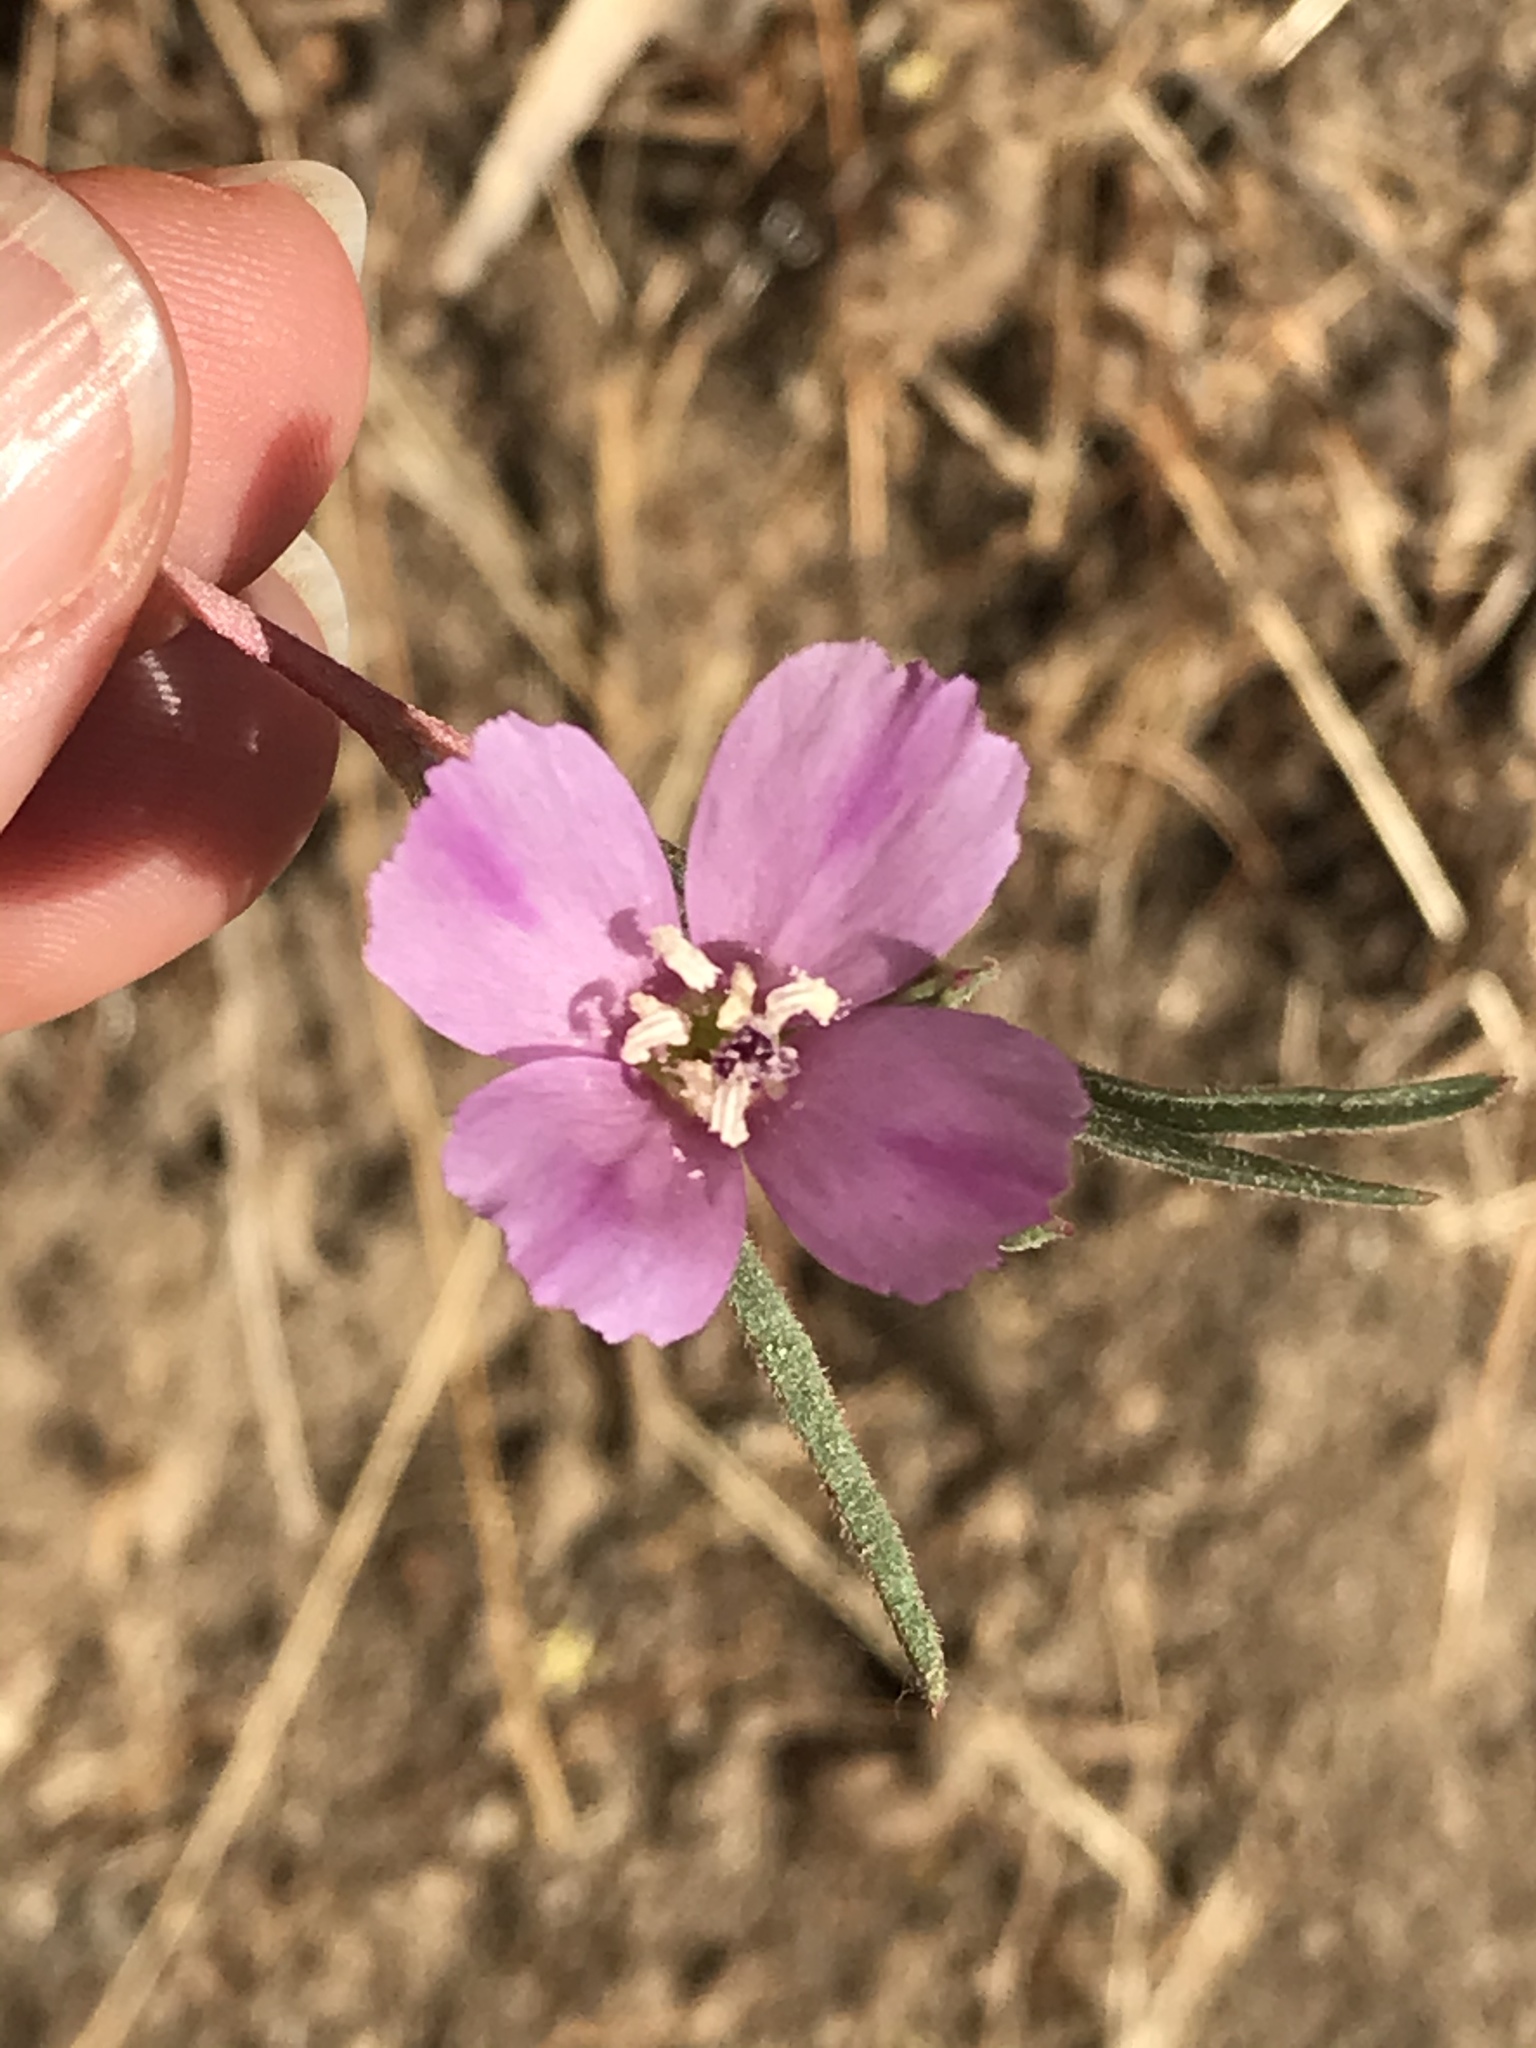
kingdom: Plantae
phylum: Tracheophyta
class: Magnoliopsida
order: Myrtales
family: Onagraceae
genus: Clarkia
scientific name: Clarkia purpurea
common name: Purple clarkia
